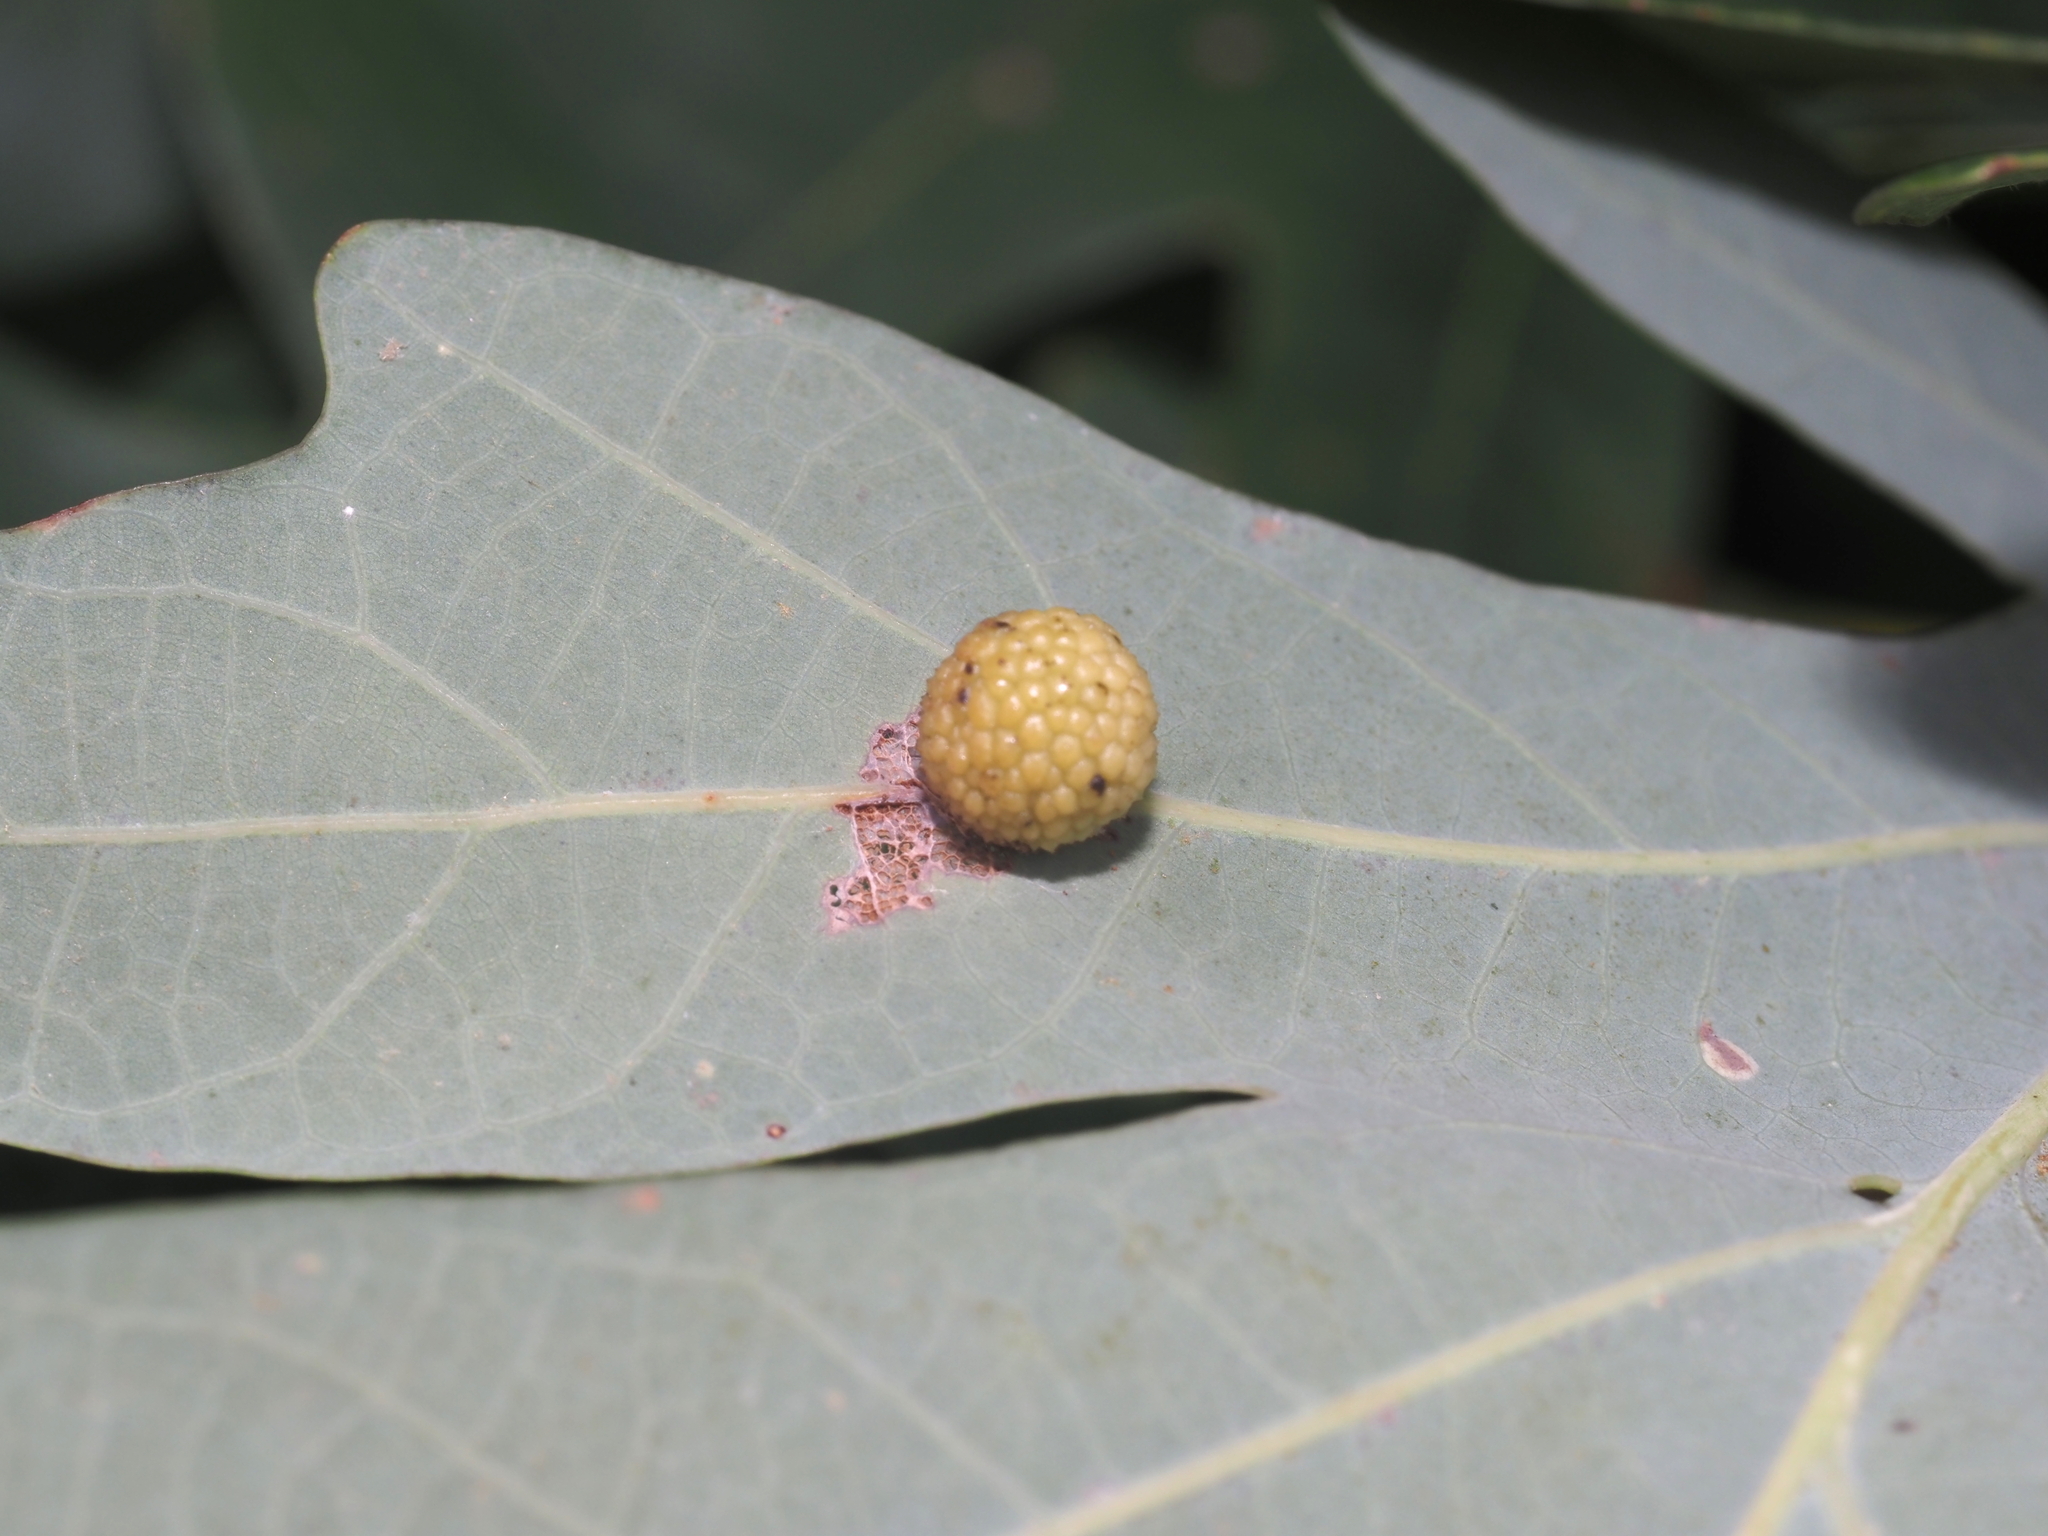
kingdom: Animalia
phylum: Arthropoda
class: Insecta
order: Hymenoptera
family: Cynipidae
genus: Acraspis
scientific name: Acraspis
